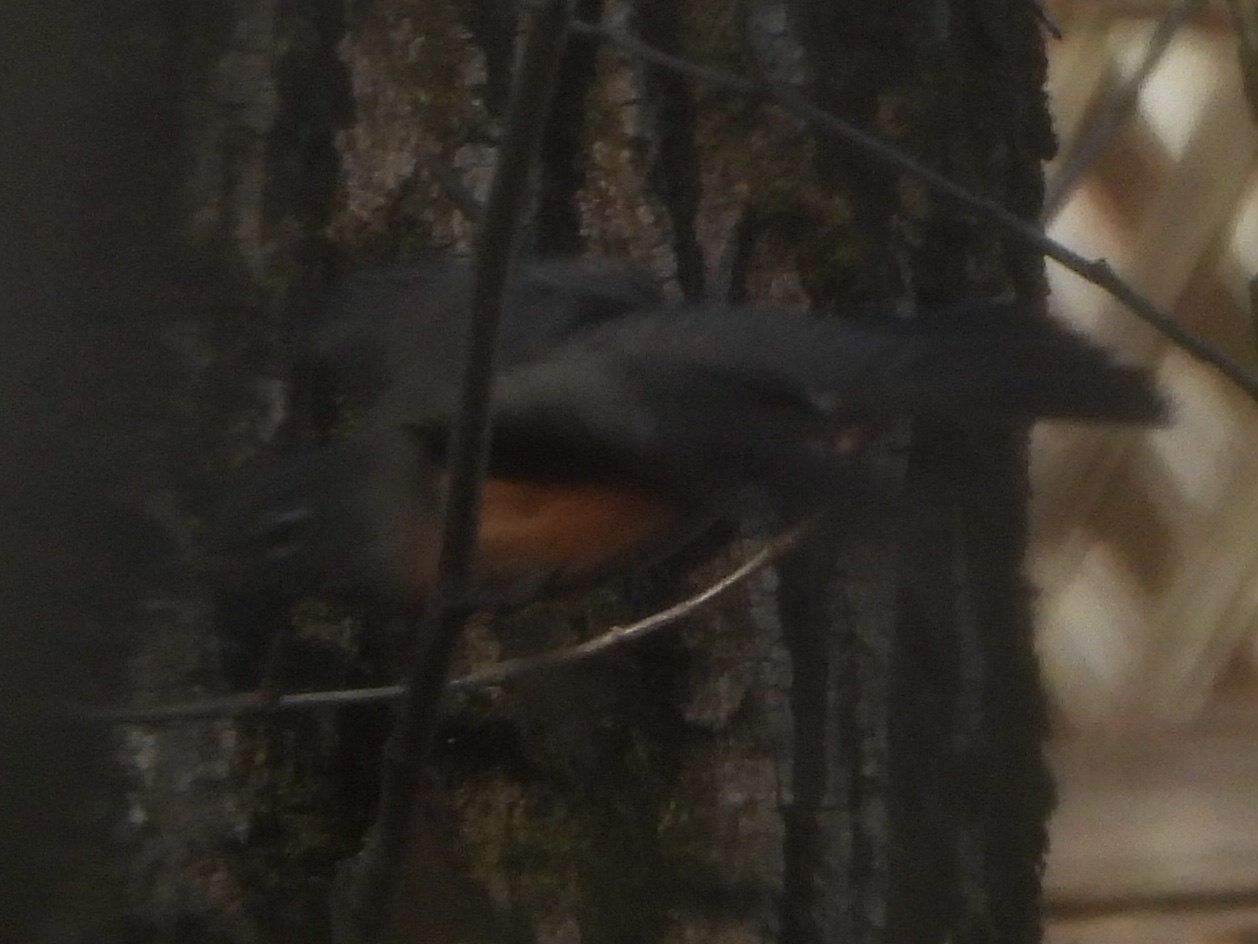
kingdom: Animalia
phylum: Chordata
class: Aves
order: Passeriformes
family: Turdidae
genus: Turdus
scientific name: Turdus migratorius
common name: American robin
